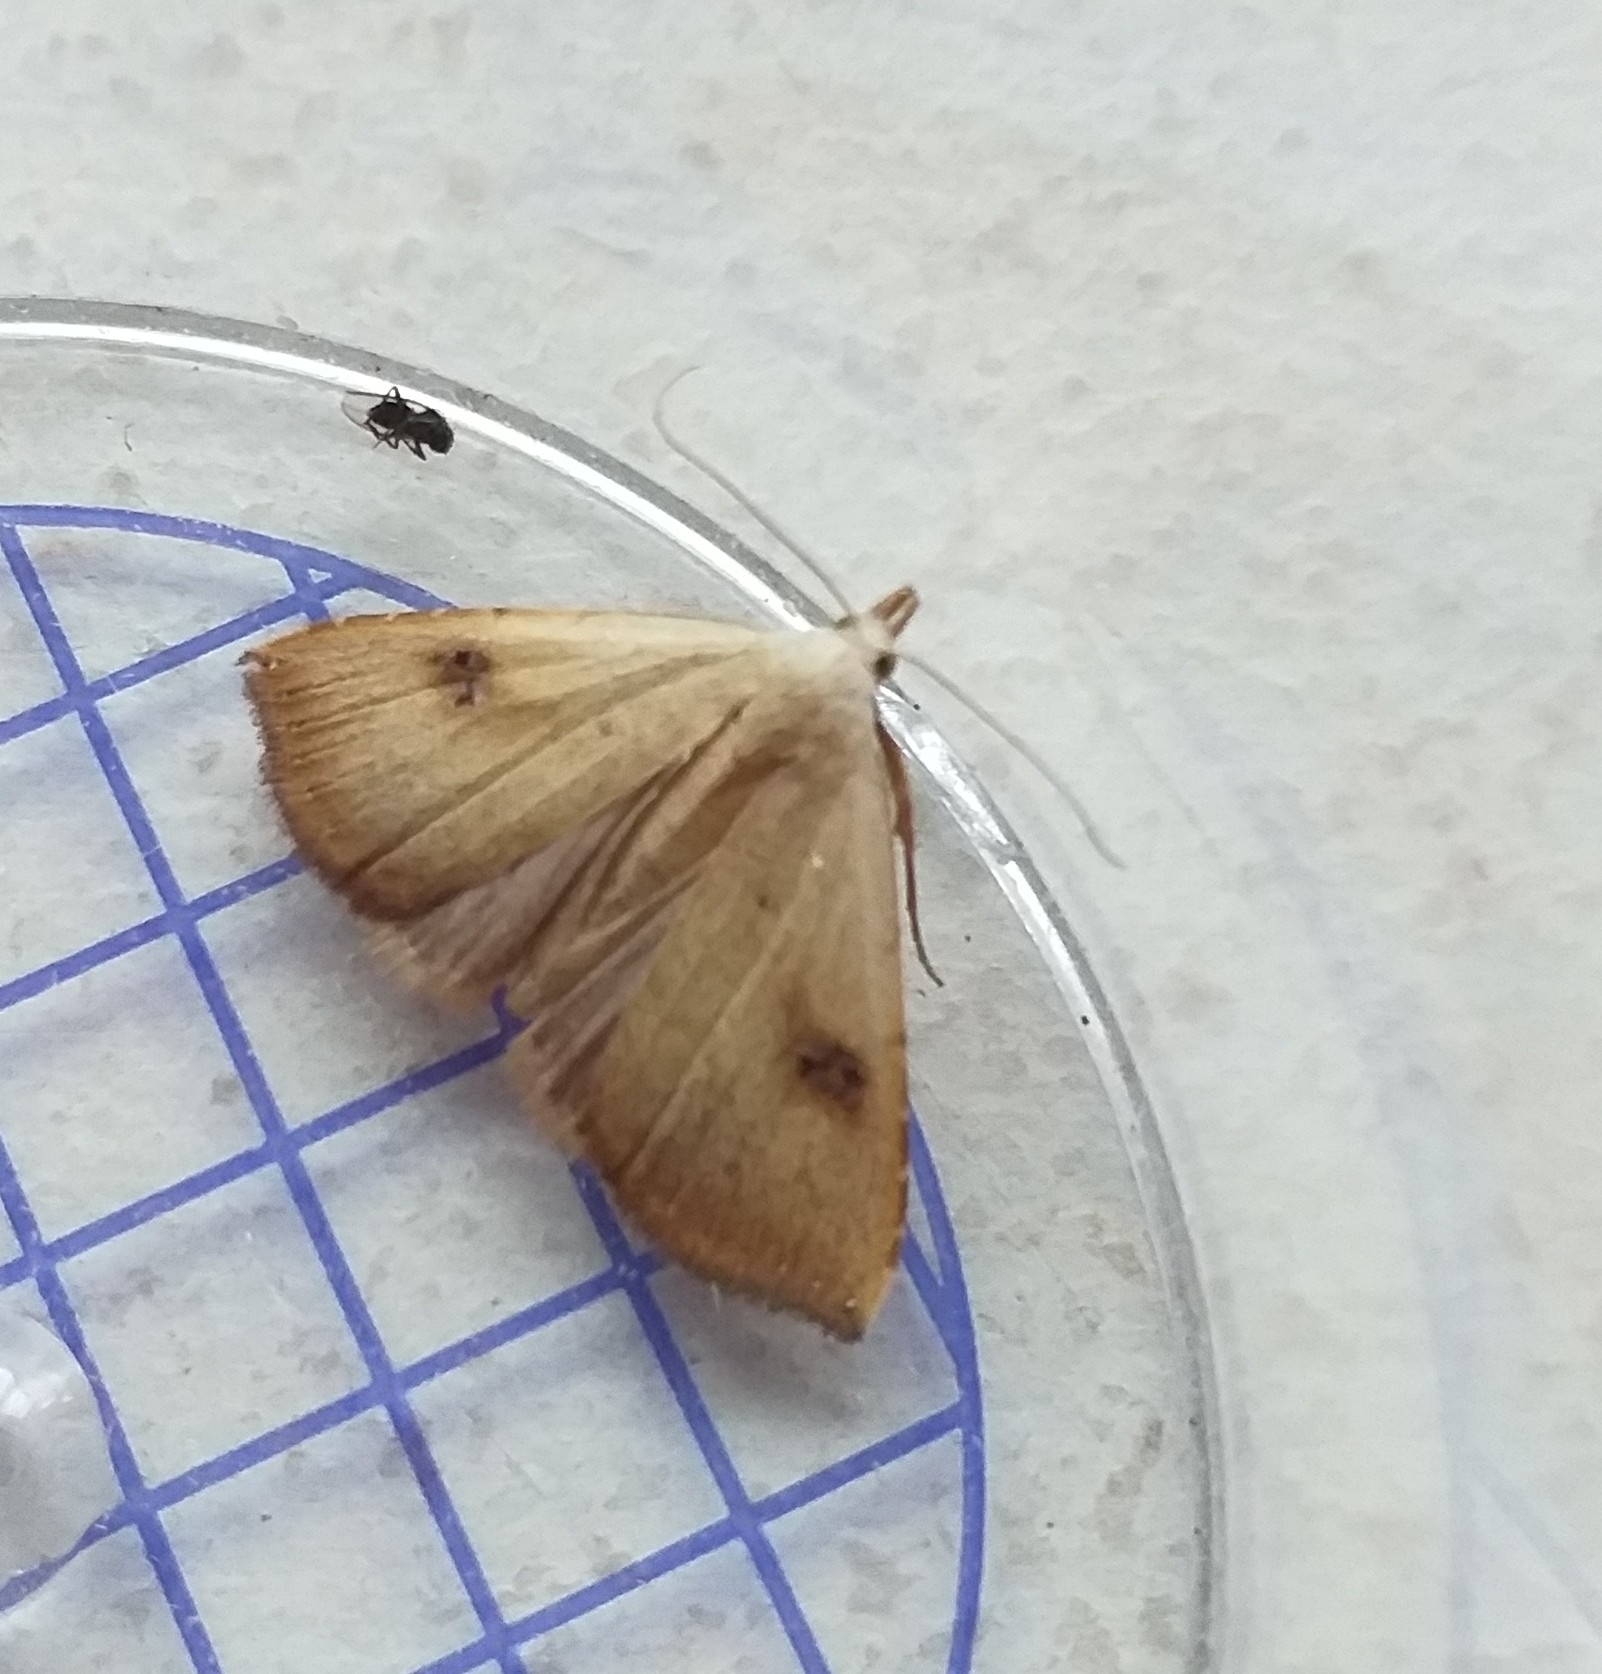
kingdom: Animalia
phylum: Arthropoda
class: Insecta
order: Lepidoptera
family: Erebidae
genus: Rivula
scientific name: Rivula sericealis
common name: Straw dot
